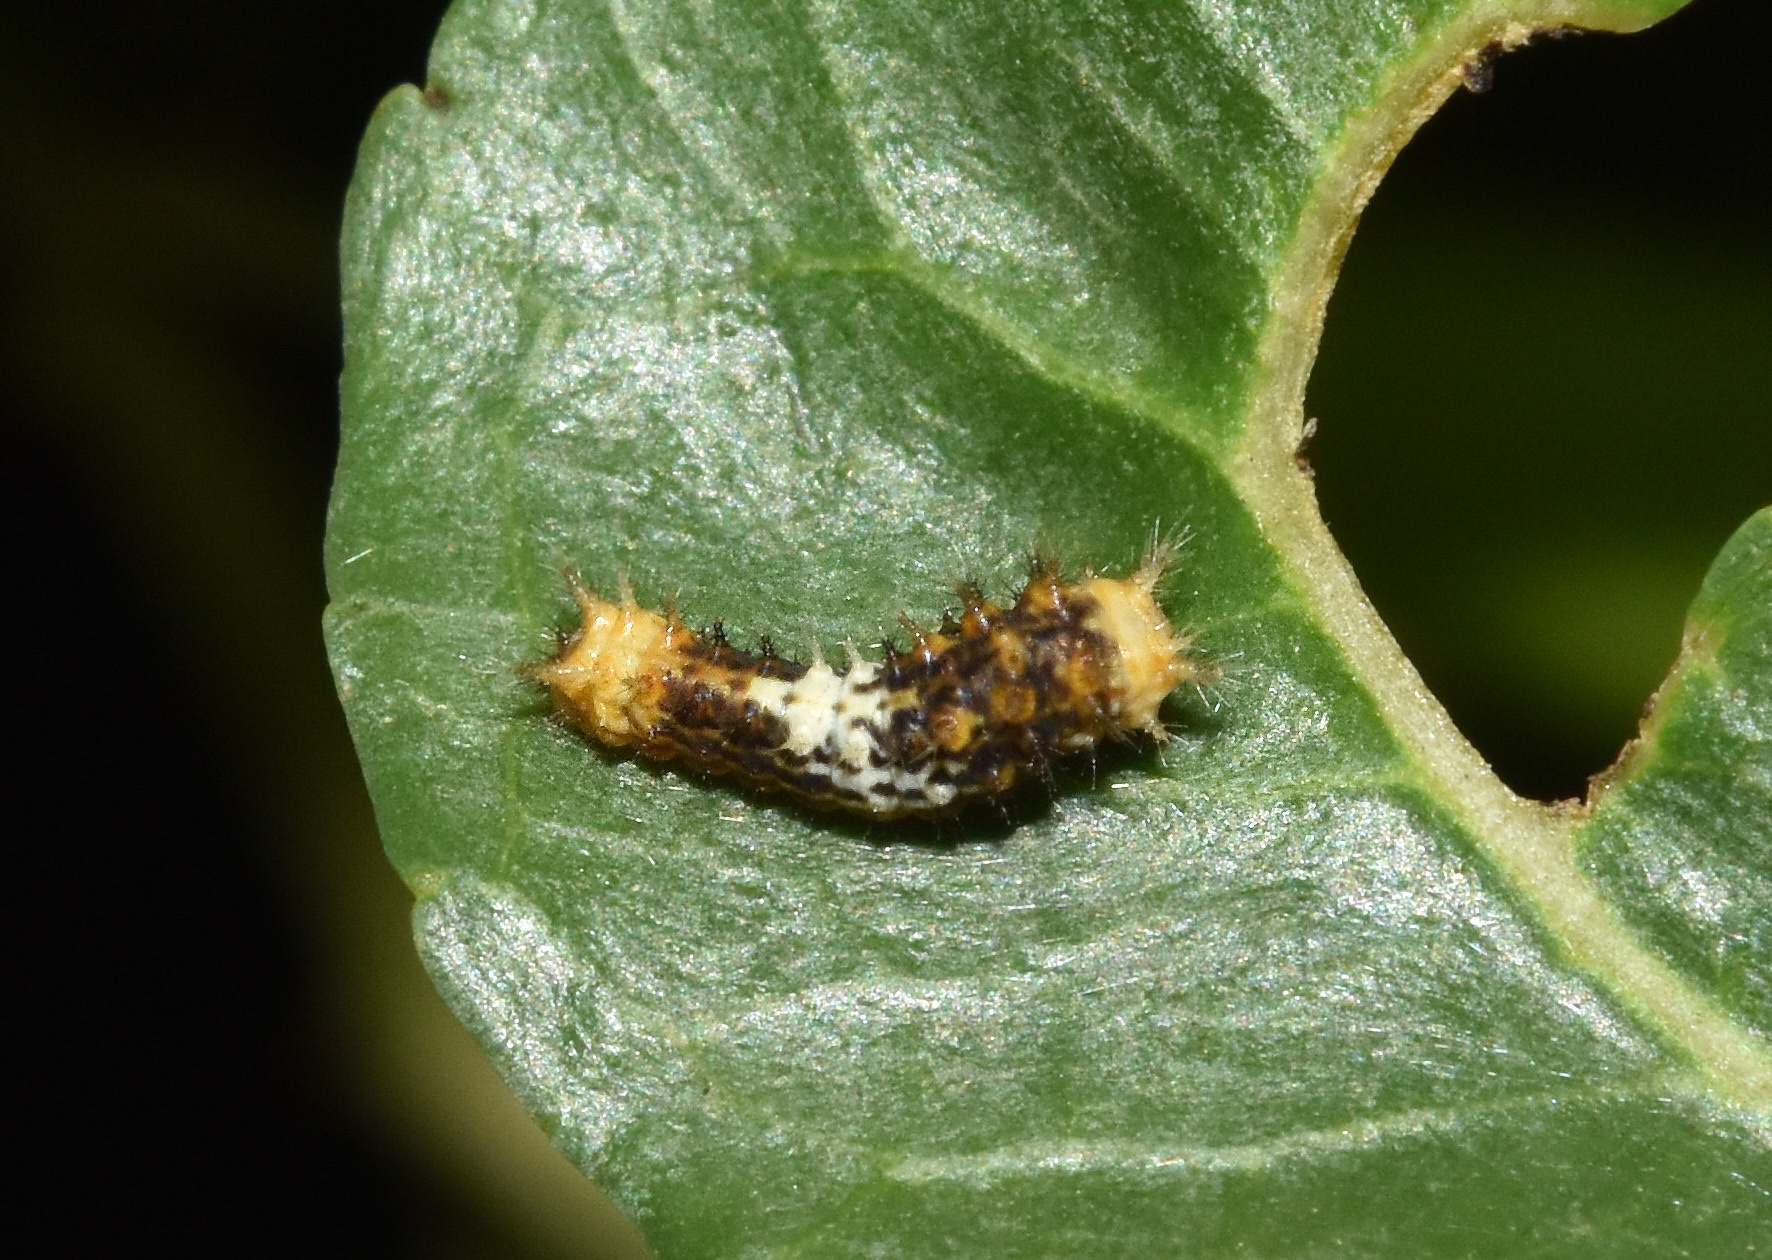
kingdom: Animalia
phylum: Arthropoda
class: Insecta
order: Lepidoptera
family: Papilionidae
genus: Papilio
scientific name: Papilio demodocus
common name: Christmas butterfly
